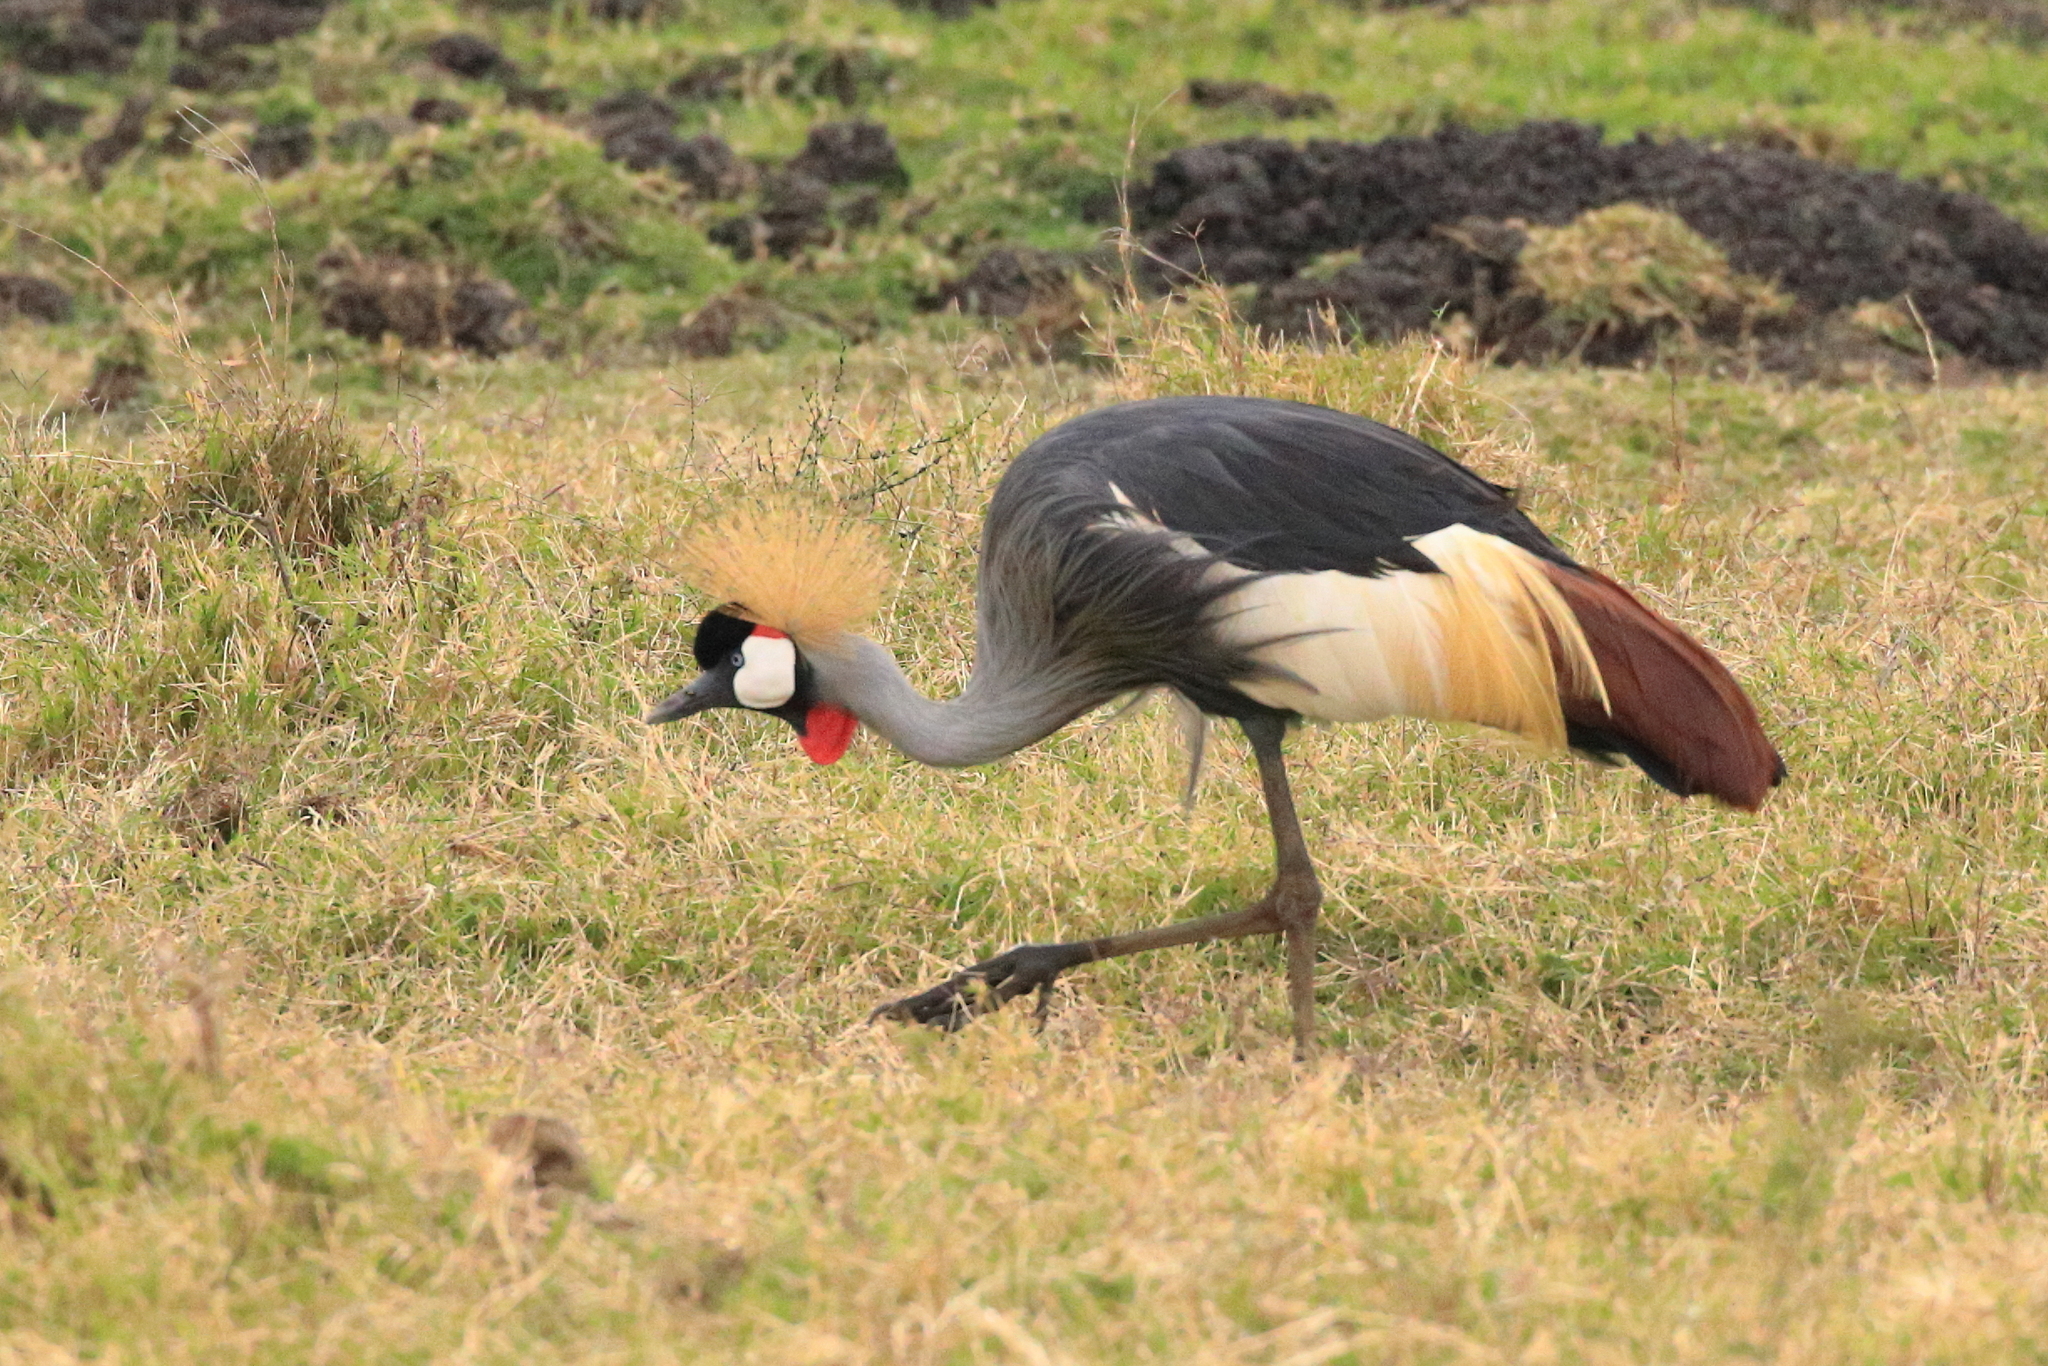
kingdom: Animalia
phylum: Chordata
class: Aves
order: Gruiformes
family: Gruidae
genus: Balearica
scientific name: Balearica regulorum
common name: Grey crowned crane
